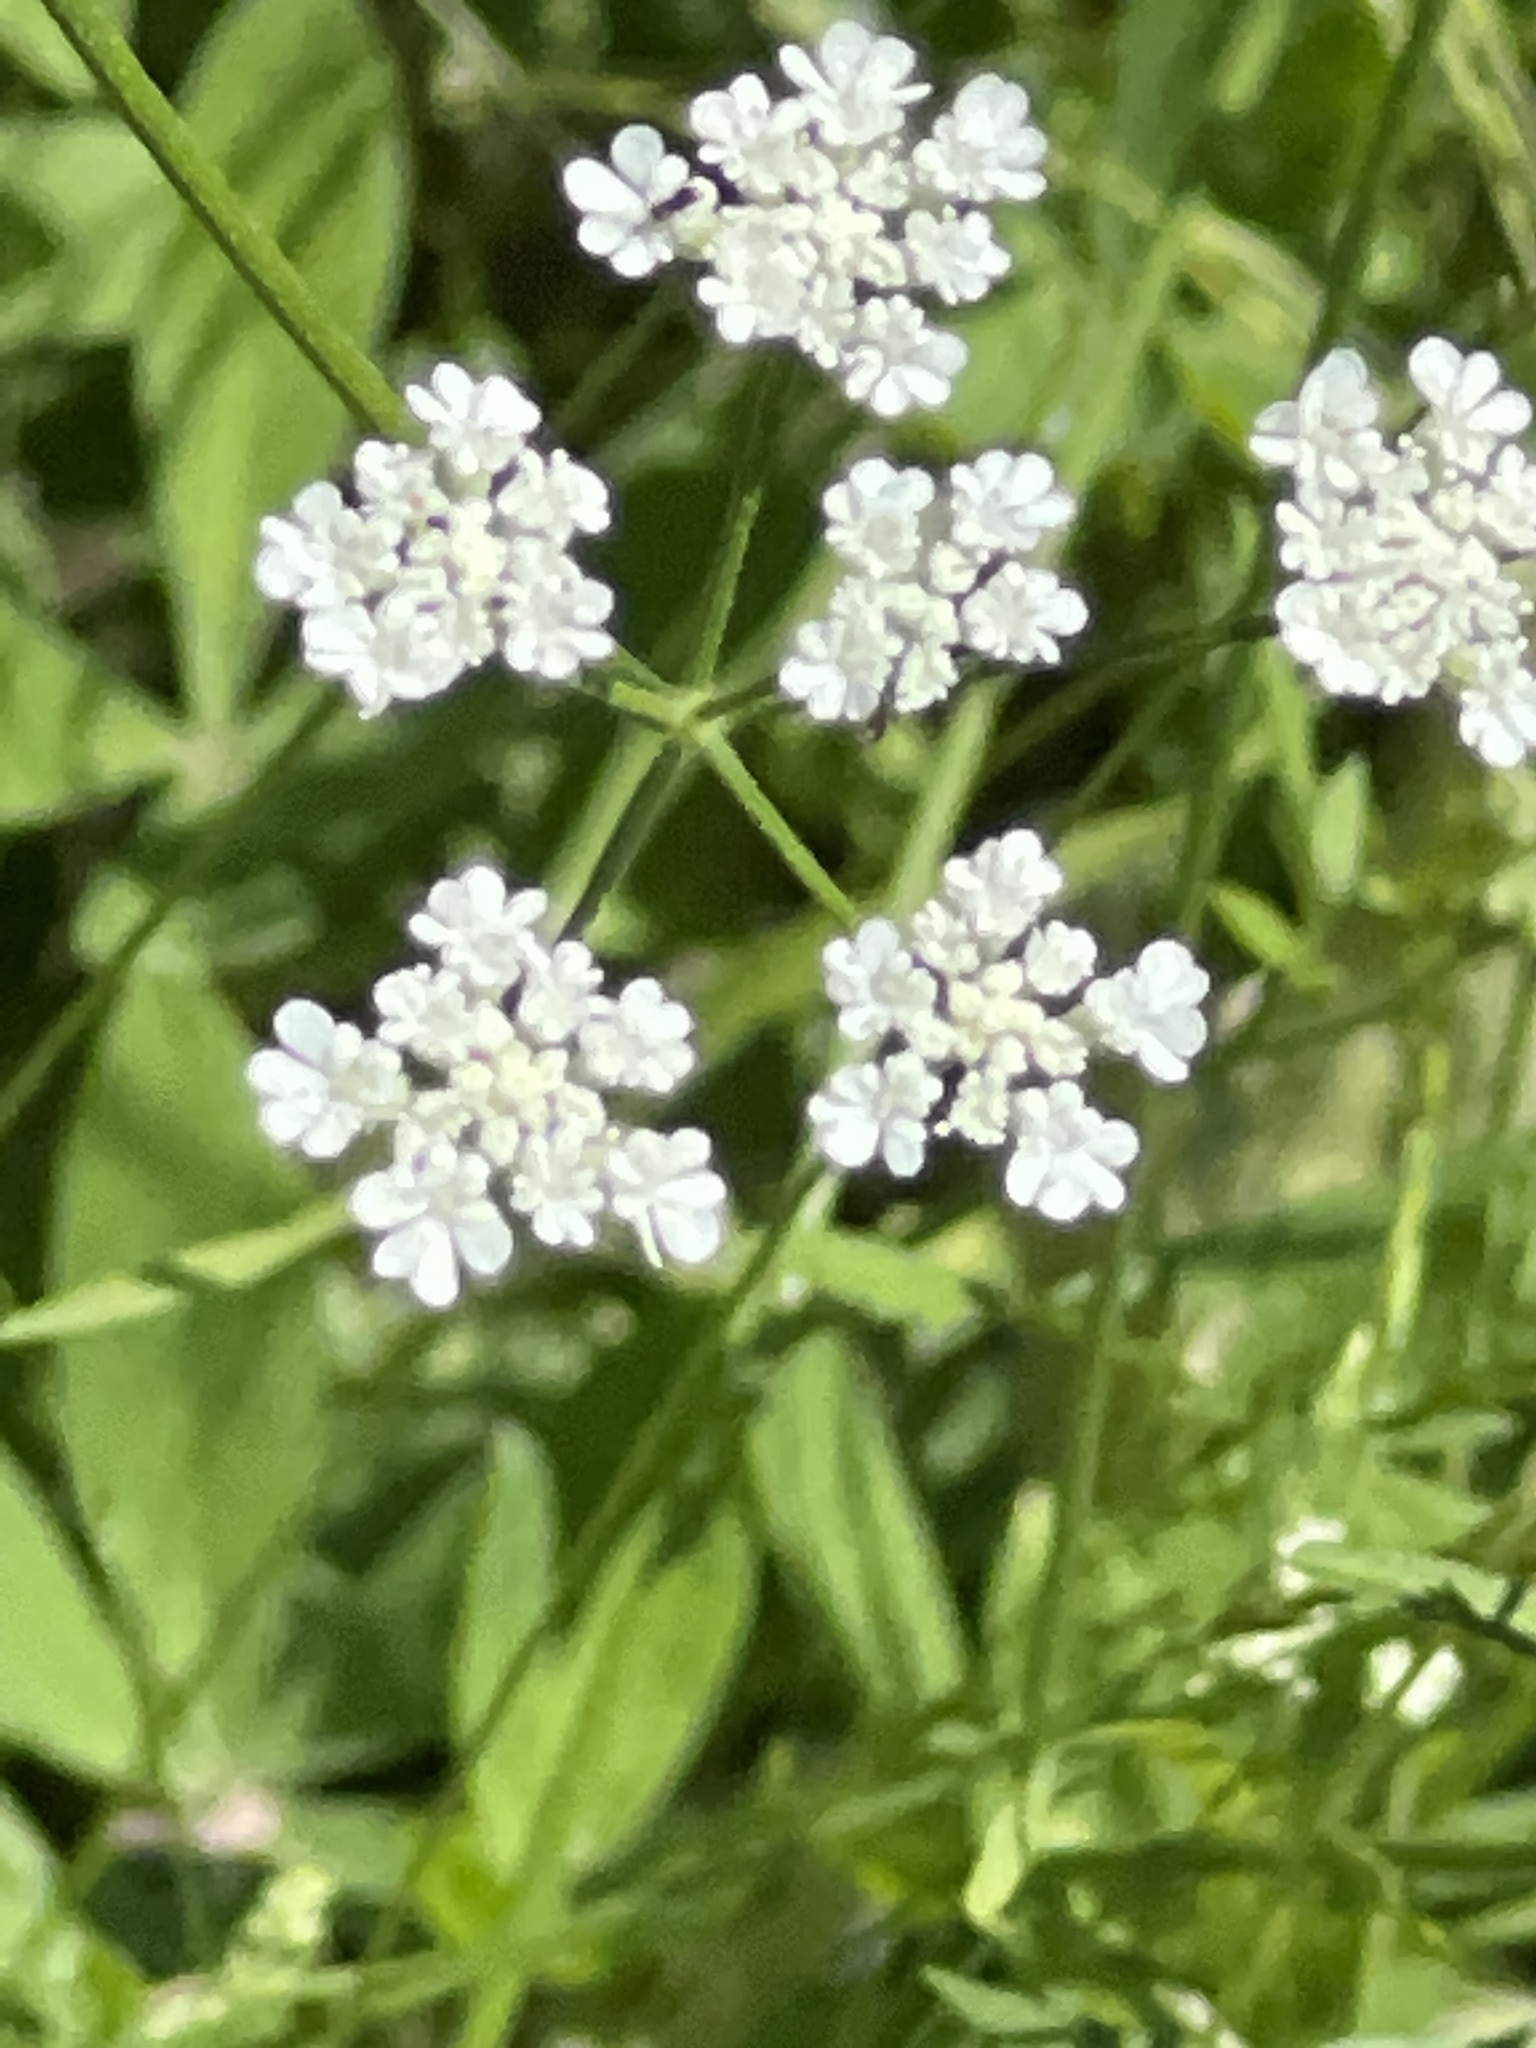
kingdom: Plantae
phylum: Tracheophyta
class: Magnoliopsida
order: Apiales
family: Apiaceae
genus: Torilis
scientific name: Torilis arvensis
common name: Spreading hedge-parsley
